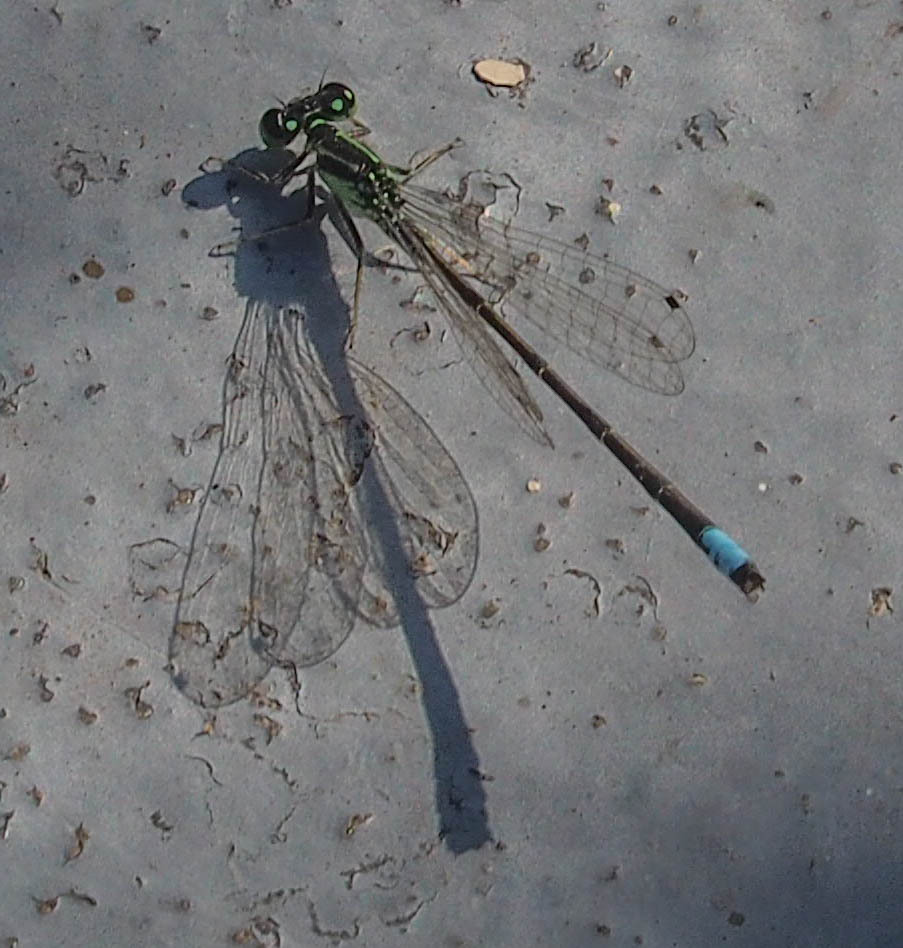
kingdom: Animalia
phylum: Arthropoda
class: Insecta
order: Odonata
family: Coenagrionidae
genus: Ischnura
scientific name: Ischnura verticalis
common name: Eastern forktail
